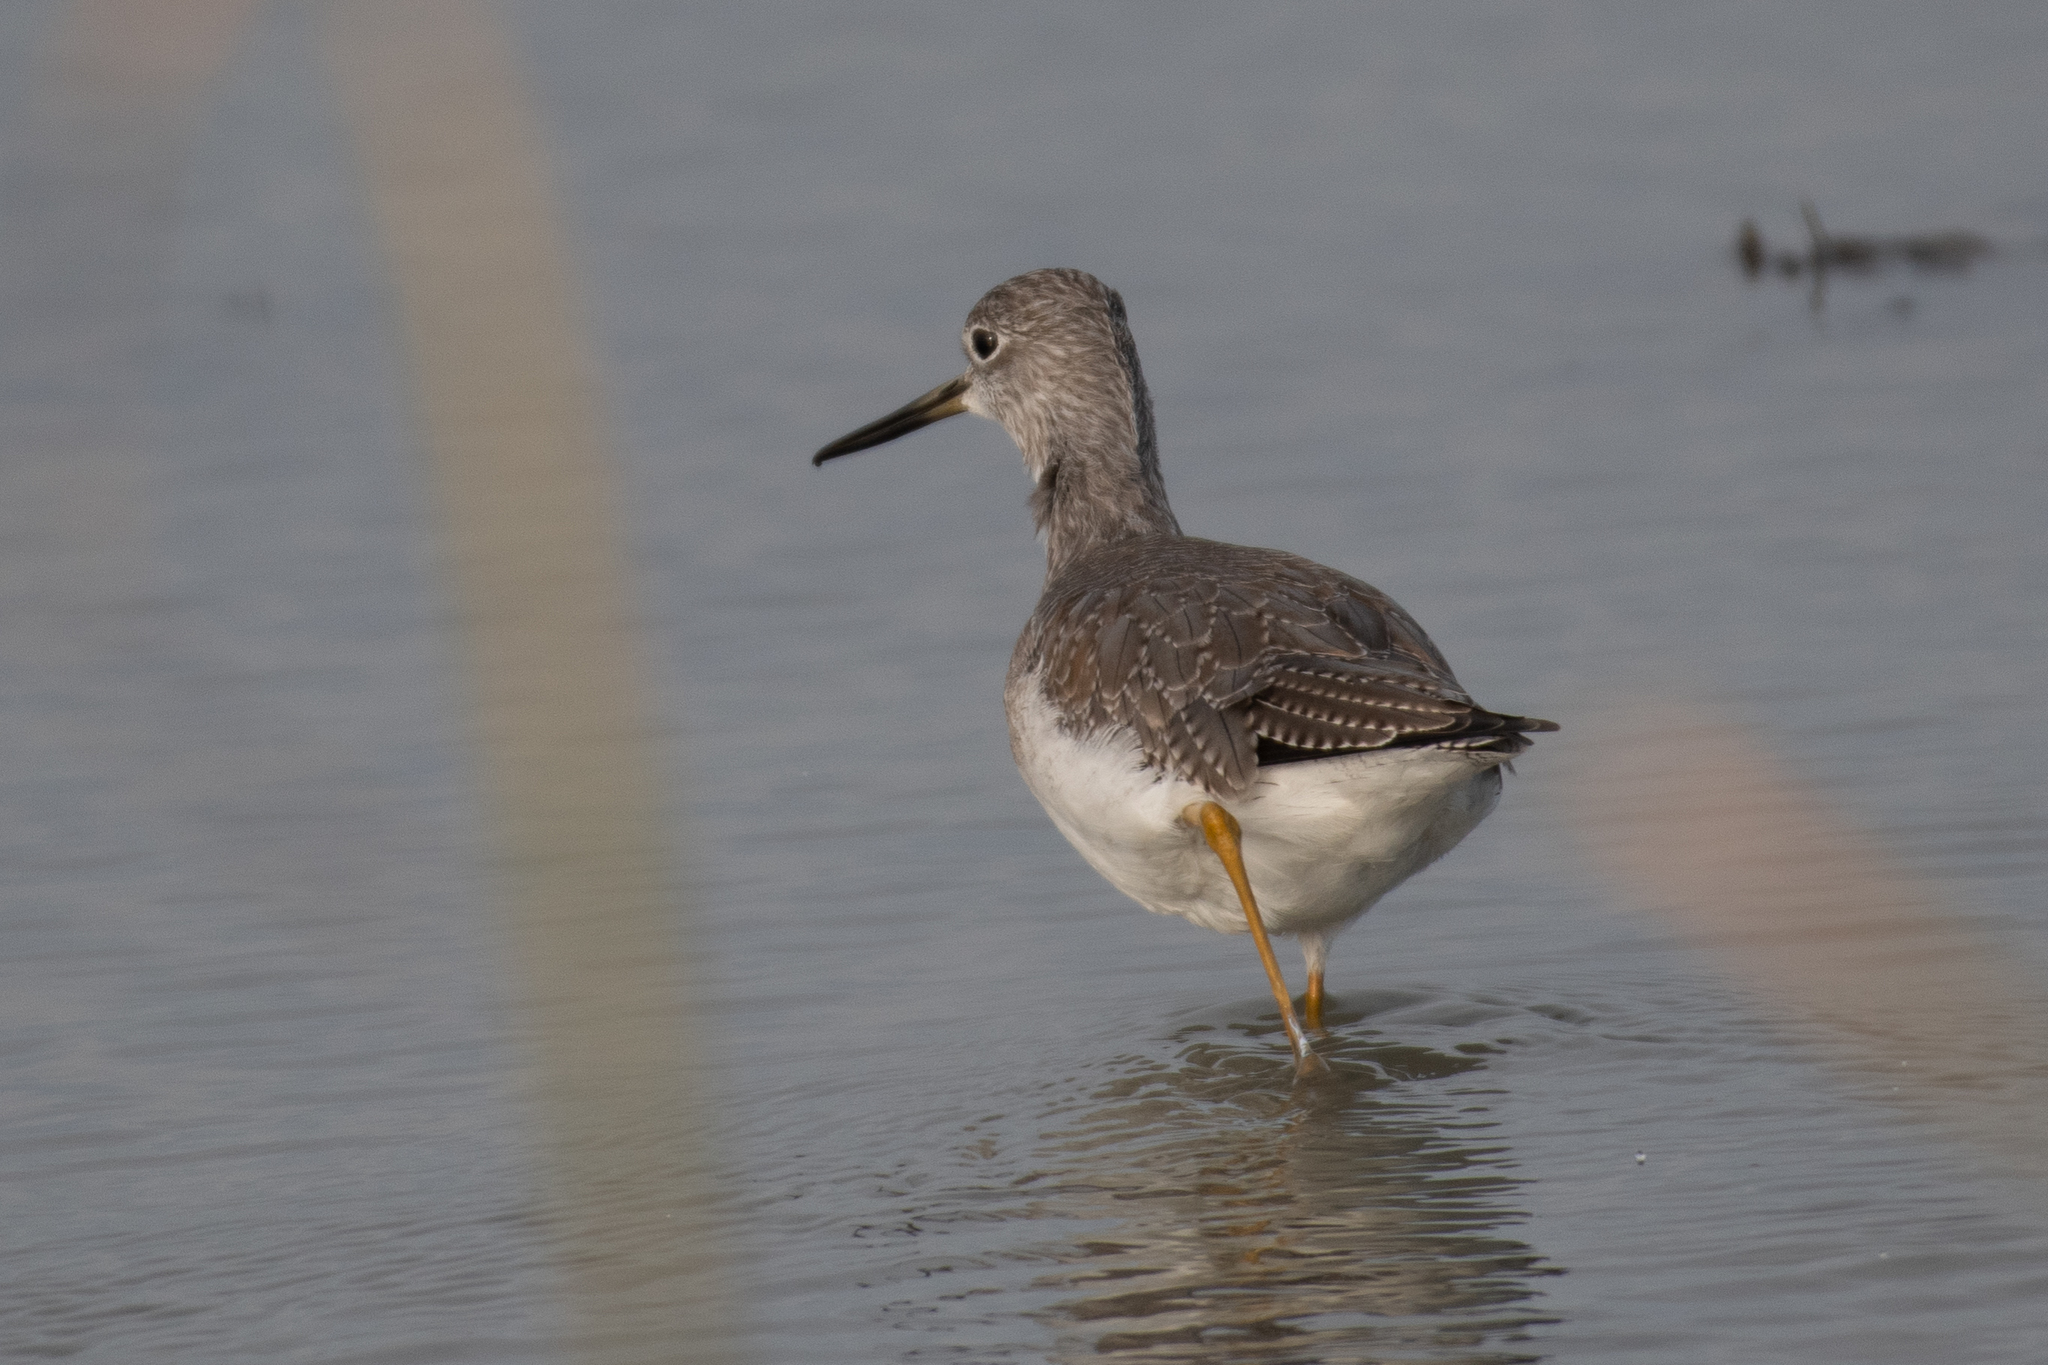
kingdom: Animalia
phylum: Chordata
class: Aves
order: Charadriiformes
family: Scolopacidae
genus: Tringa
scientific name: Tringa melanoleuca
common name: Greater yellowlegs
